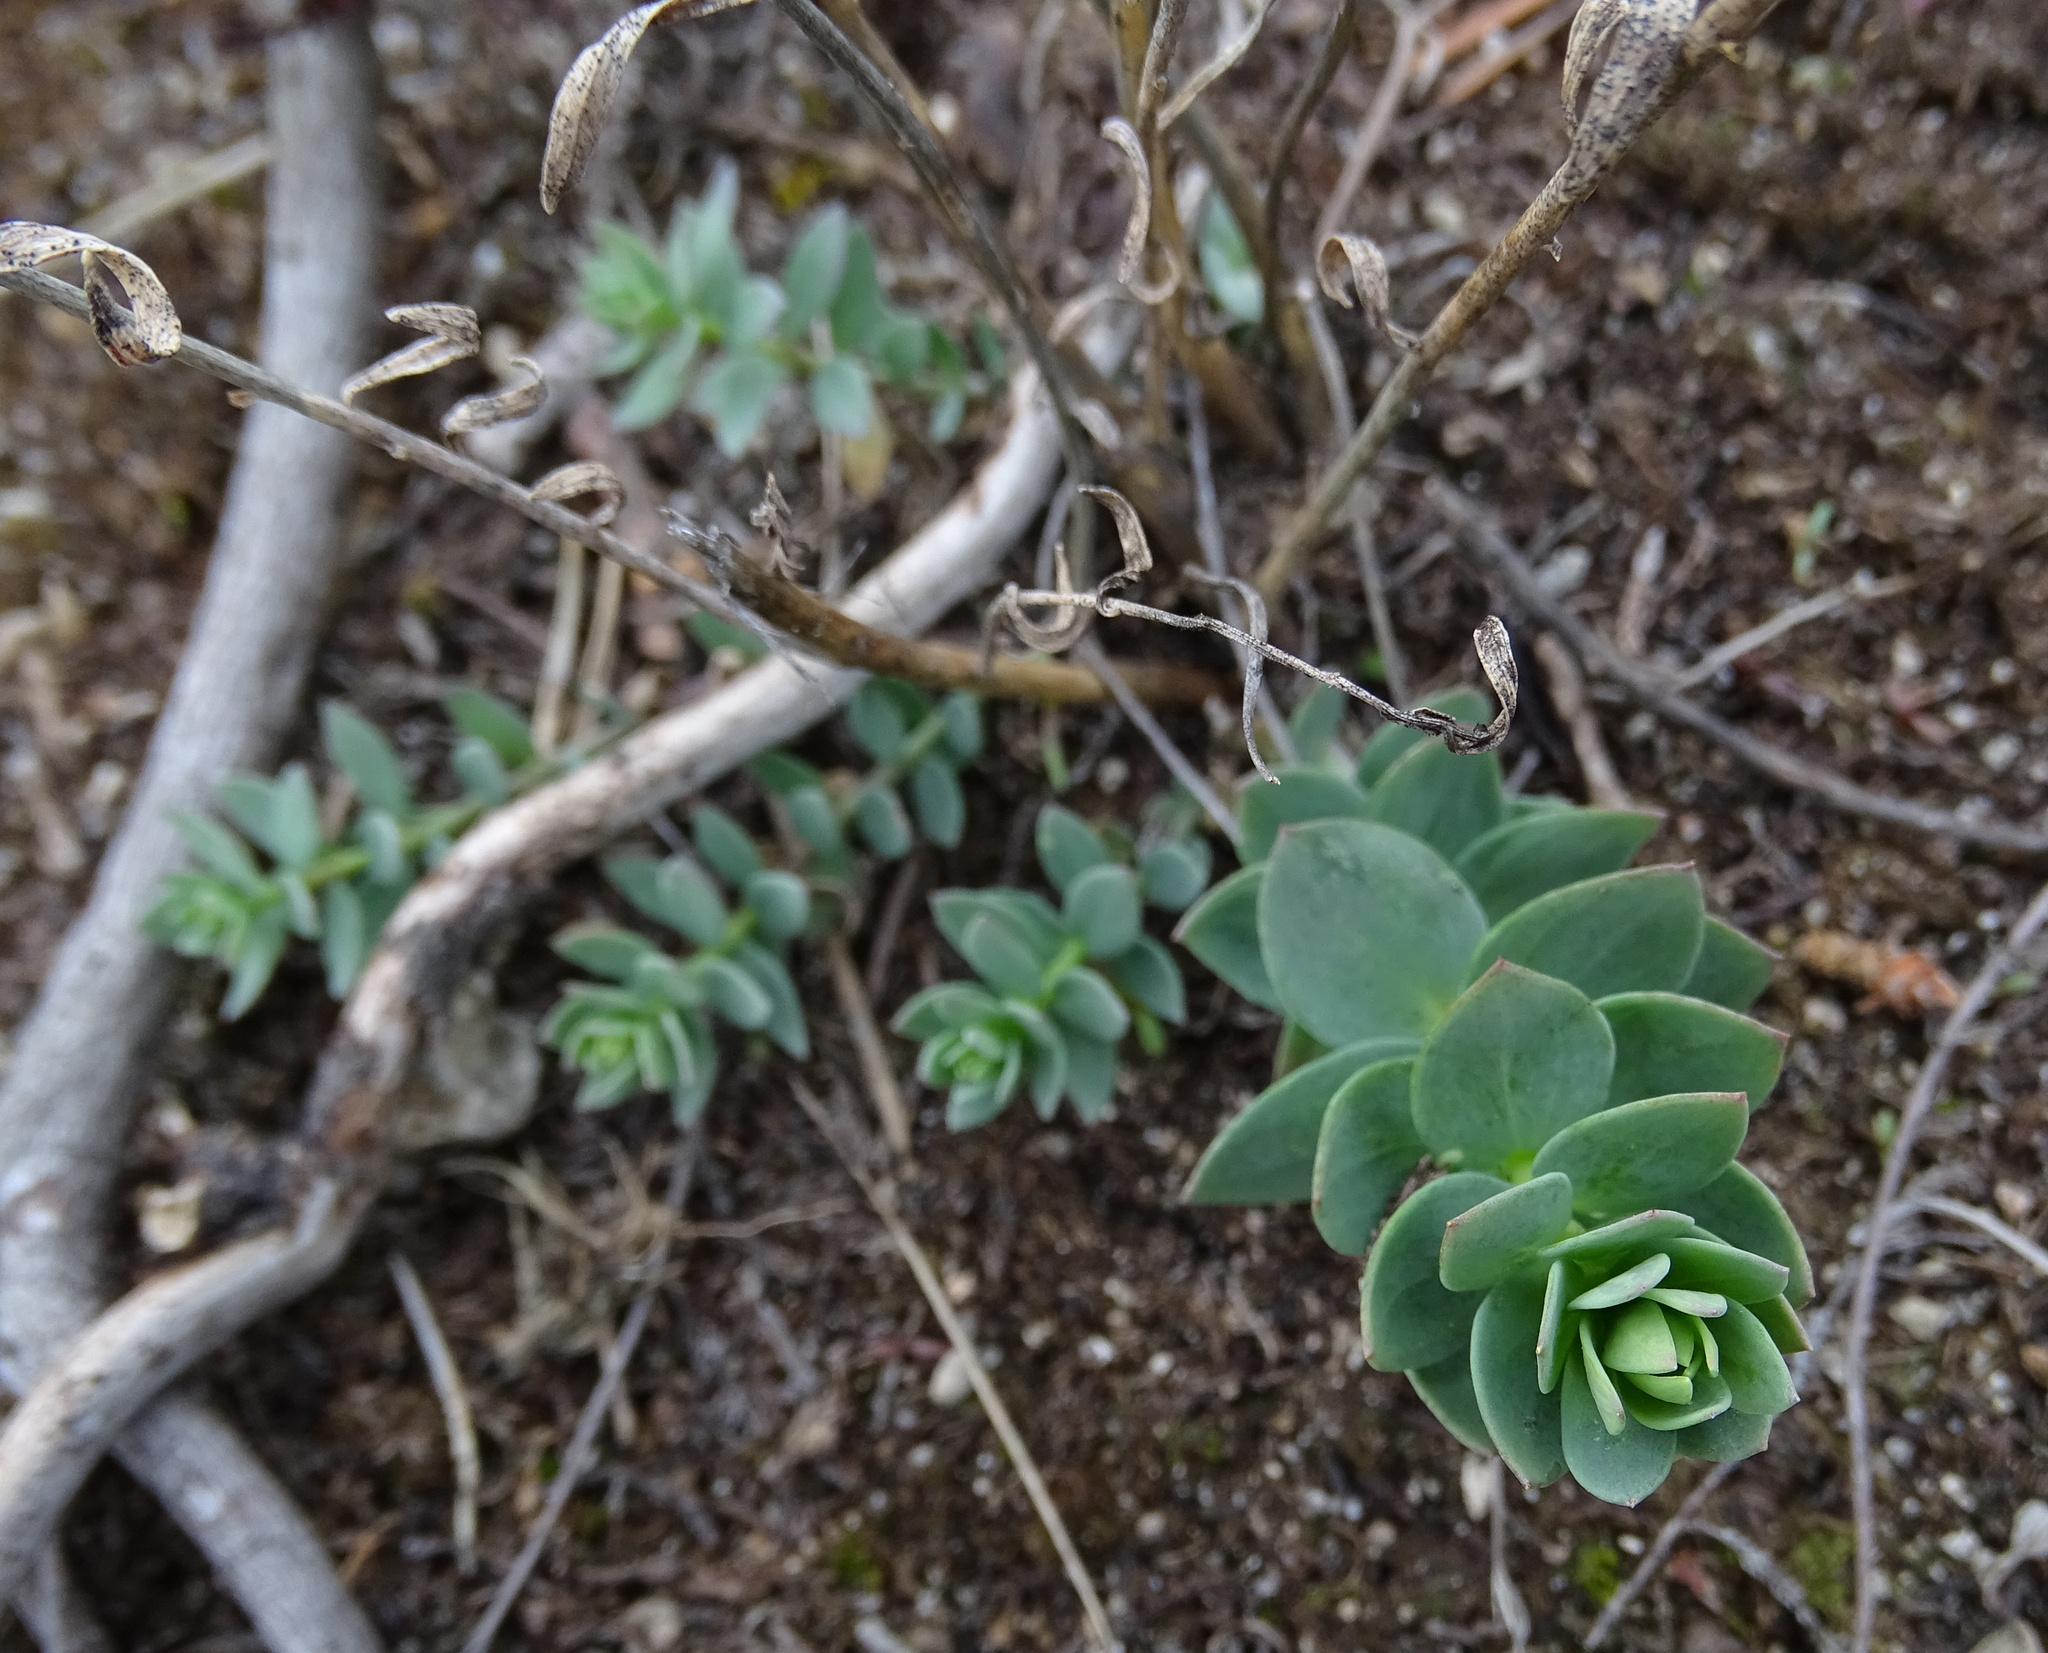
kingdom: Plantae
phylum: Tracheophyta
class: Magnoliopsida
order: Lamiales
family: Plantaginaceae
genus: Linaria
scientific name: Linaria genistifolia
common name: Broomleaf toadflax
